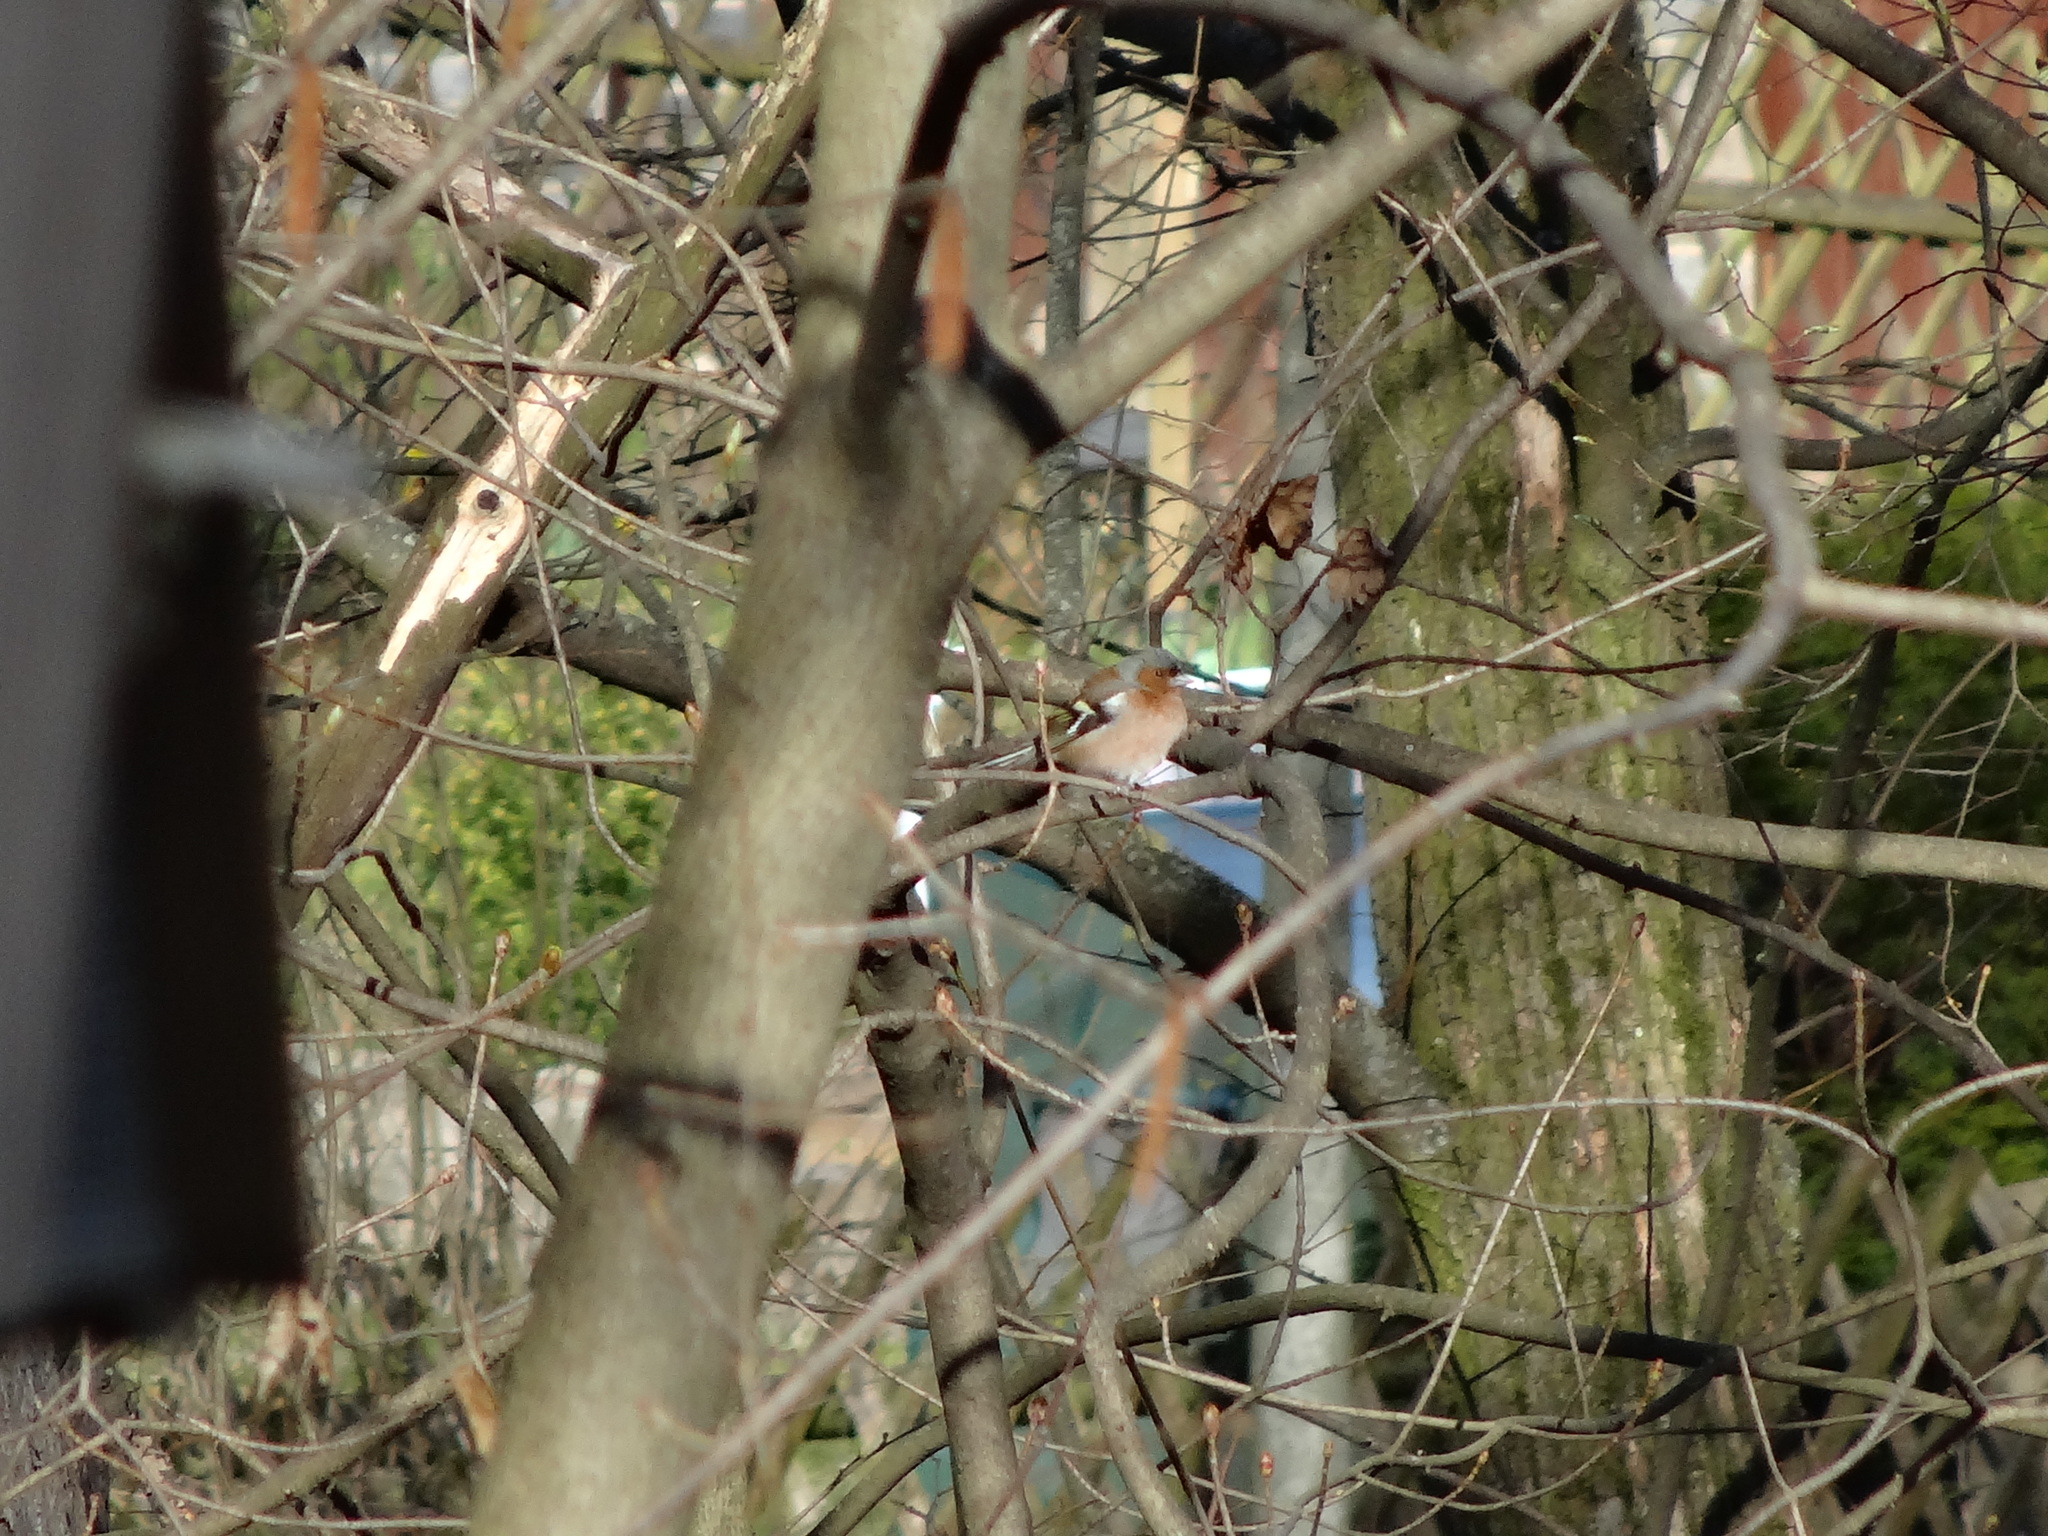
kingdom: Animalia
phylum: Chordata
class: Aves
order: Passeriformes
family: Fringillidae
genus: Fringilla
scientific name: Fringilla coelebs
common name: Common chaffinch
